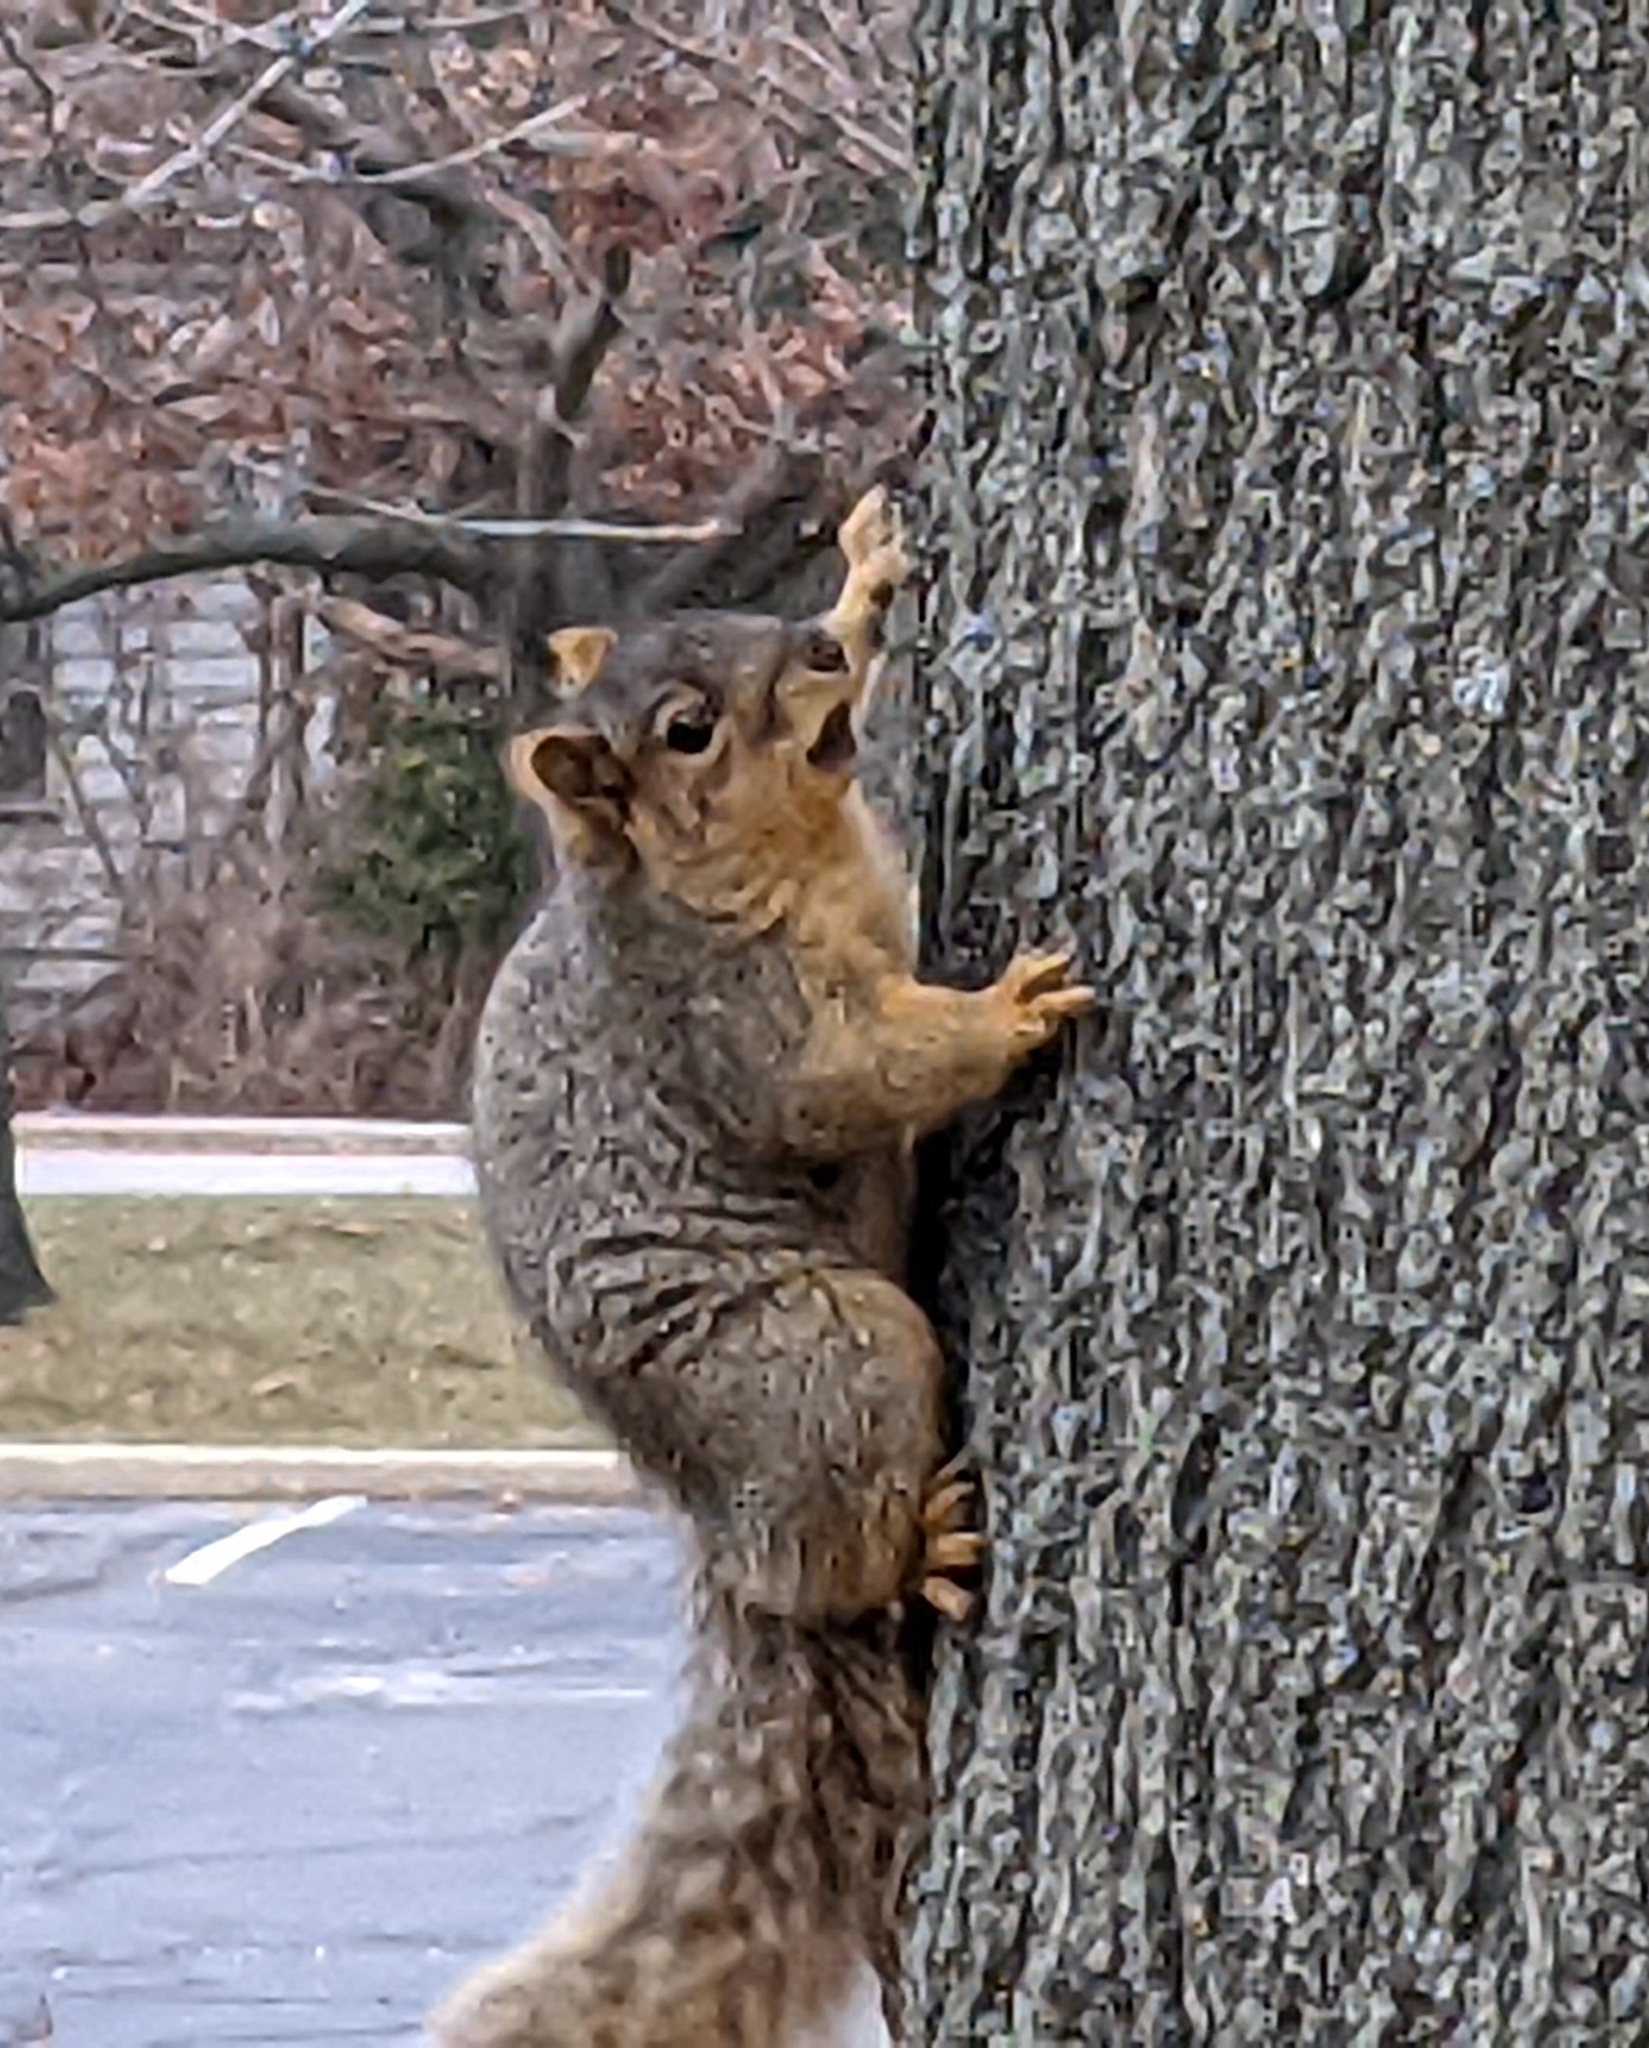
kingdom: Animalia
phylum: Chordata
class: Mammalia
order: Rodentia
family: Sciuridae
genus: Sciurus
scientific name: Sciurus niger
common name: Fox squirrel
